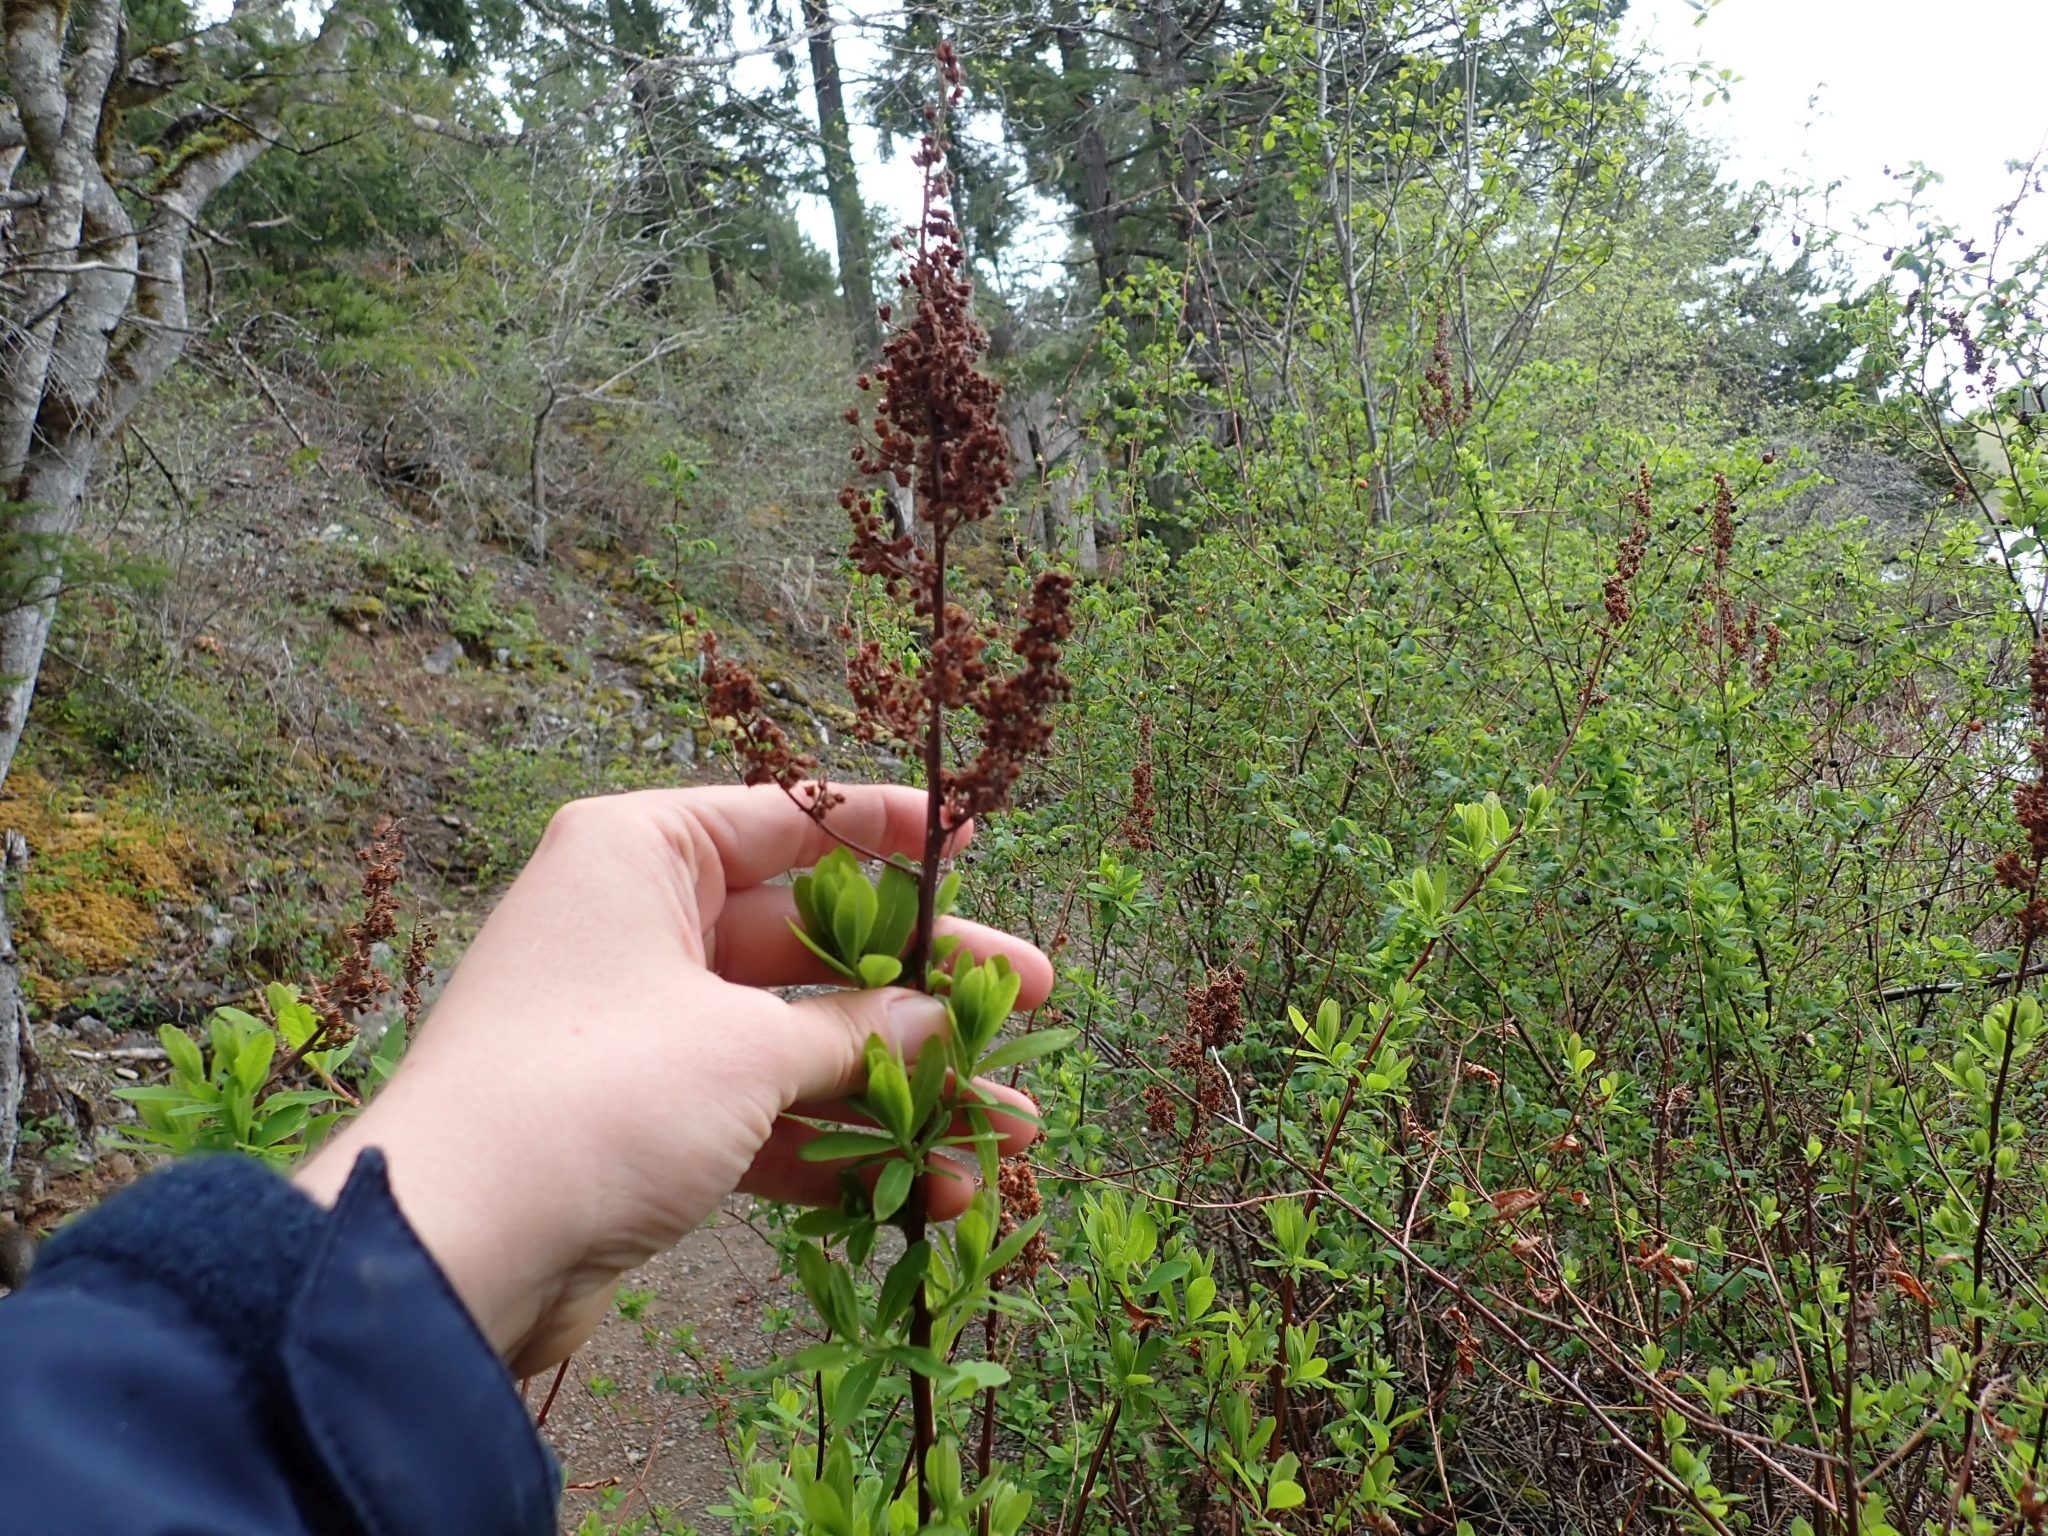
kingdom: Plantae
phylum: Tracheophyta
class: Magnoliopsida
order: Rosales
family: Rosaceae
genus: Spiraea
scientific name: Spiraea douglasii
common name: Steeplebush
